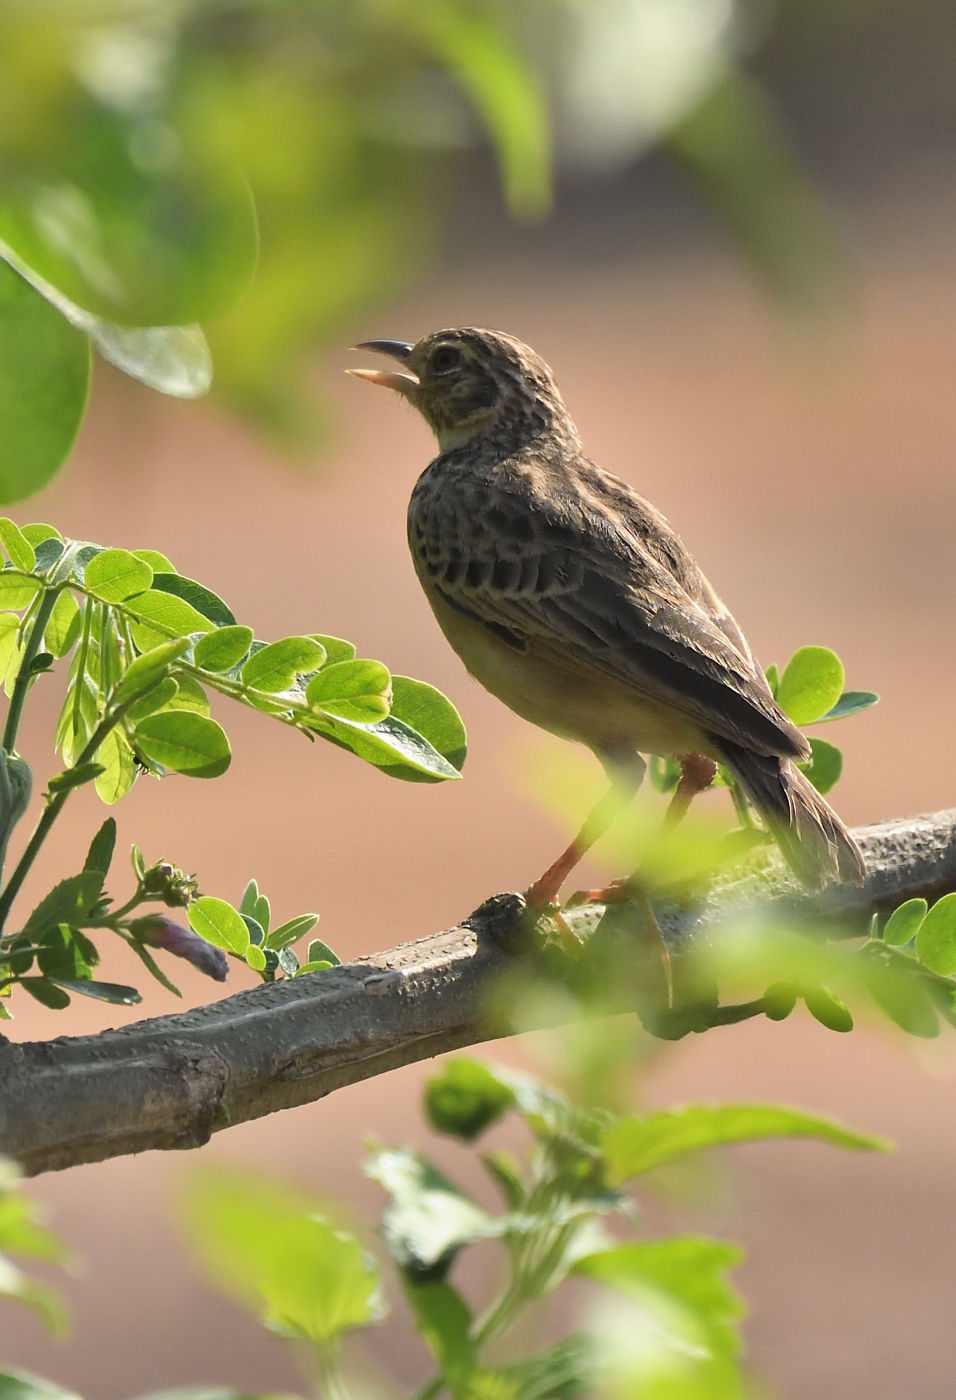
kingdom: Animalia
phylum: Chordata
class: Aves
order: Passeriformes
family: Alaudidae
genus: Mirafra
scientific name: Mirafra affinis
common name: Jerdon's bushlark
